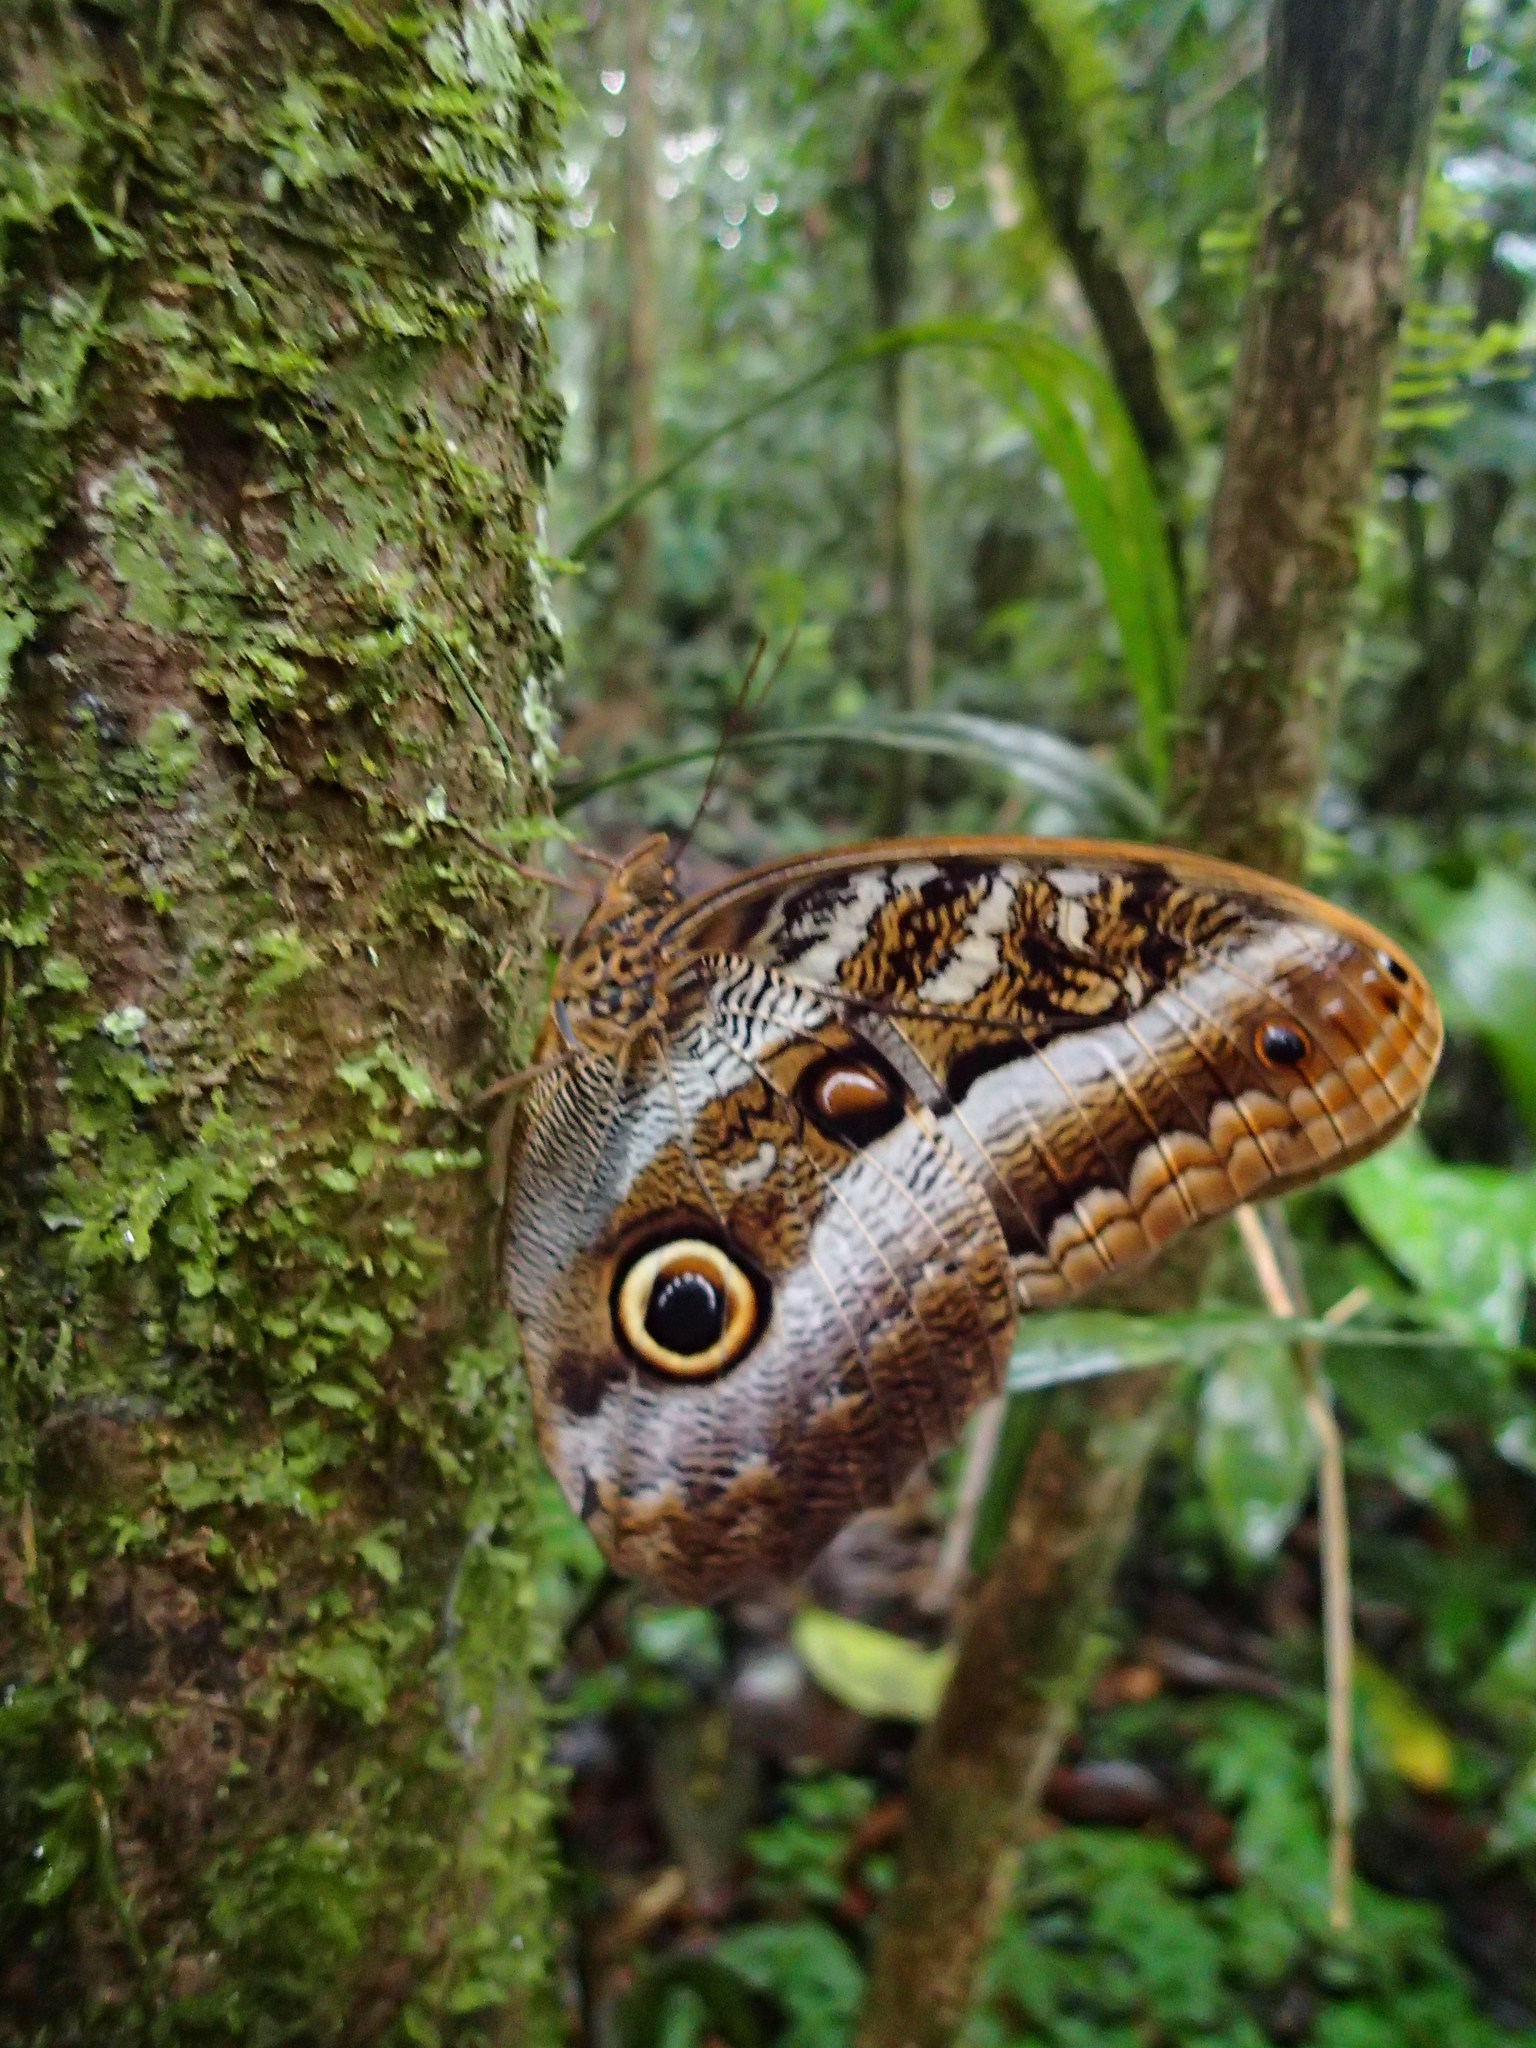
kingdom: Animalia
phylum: Arthropoda
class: Insecta
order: Lepidoptera
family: Nymphalidae
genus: Caligo
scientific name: Caligo euphorbus
